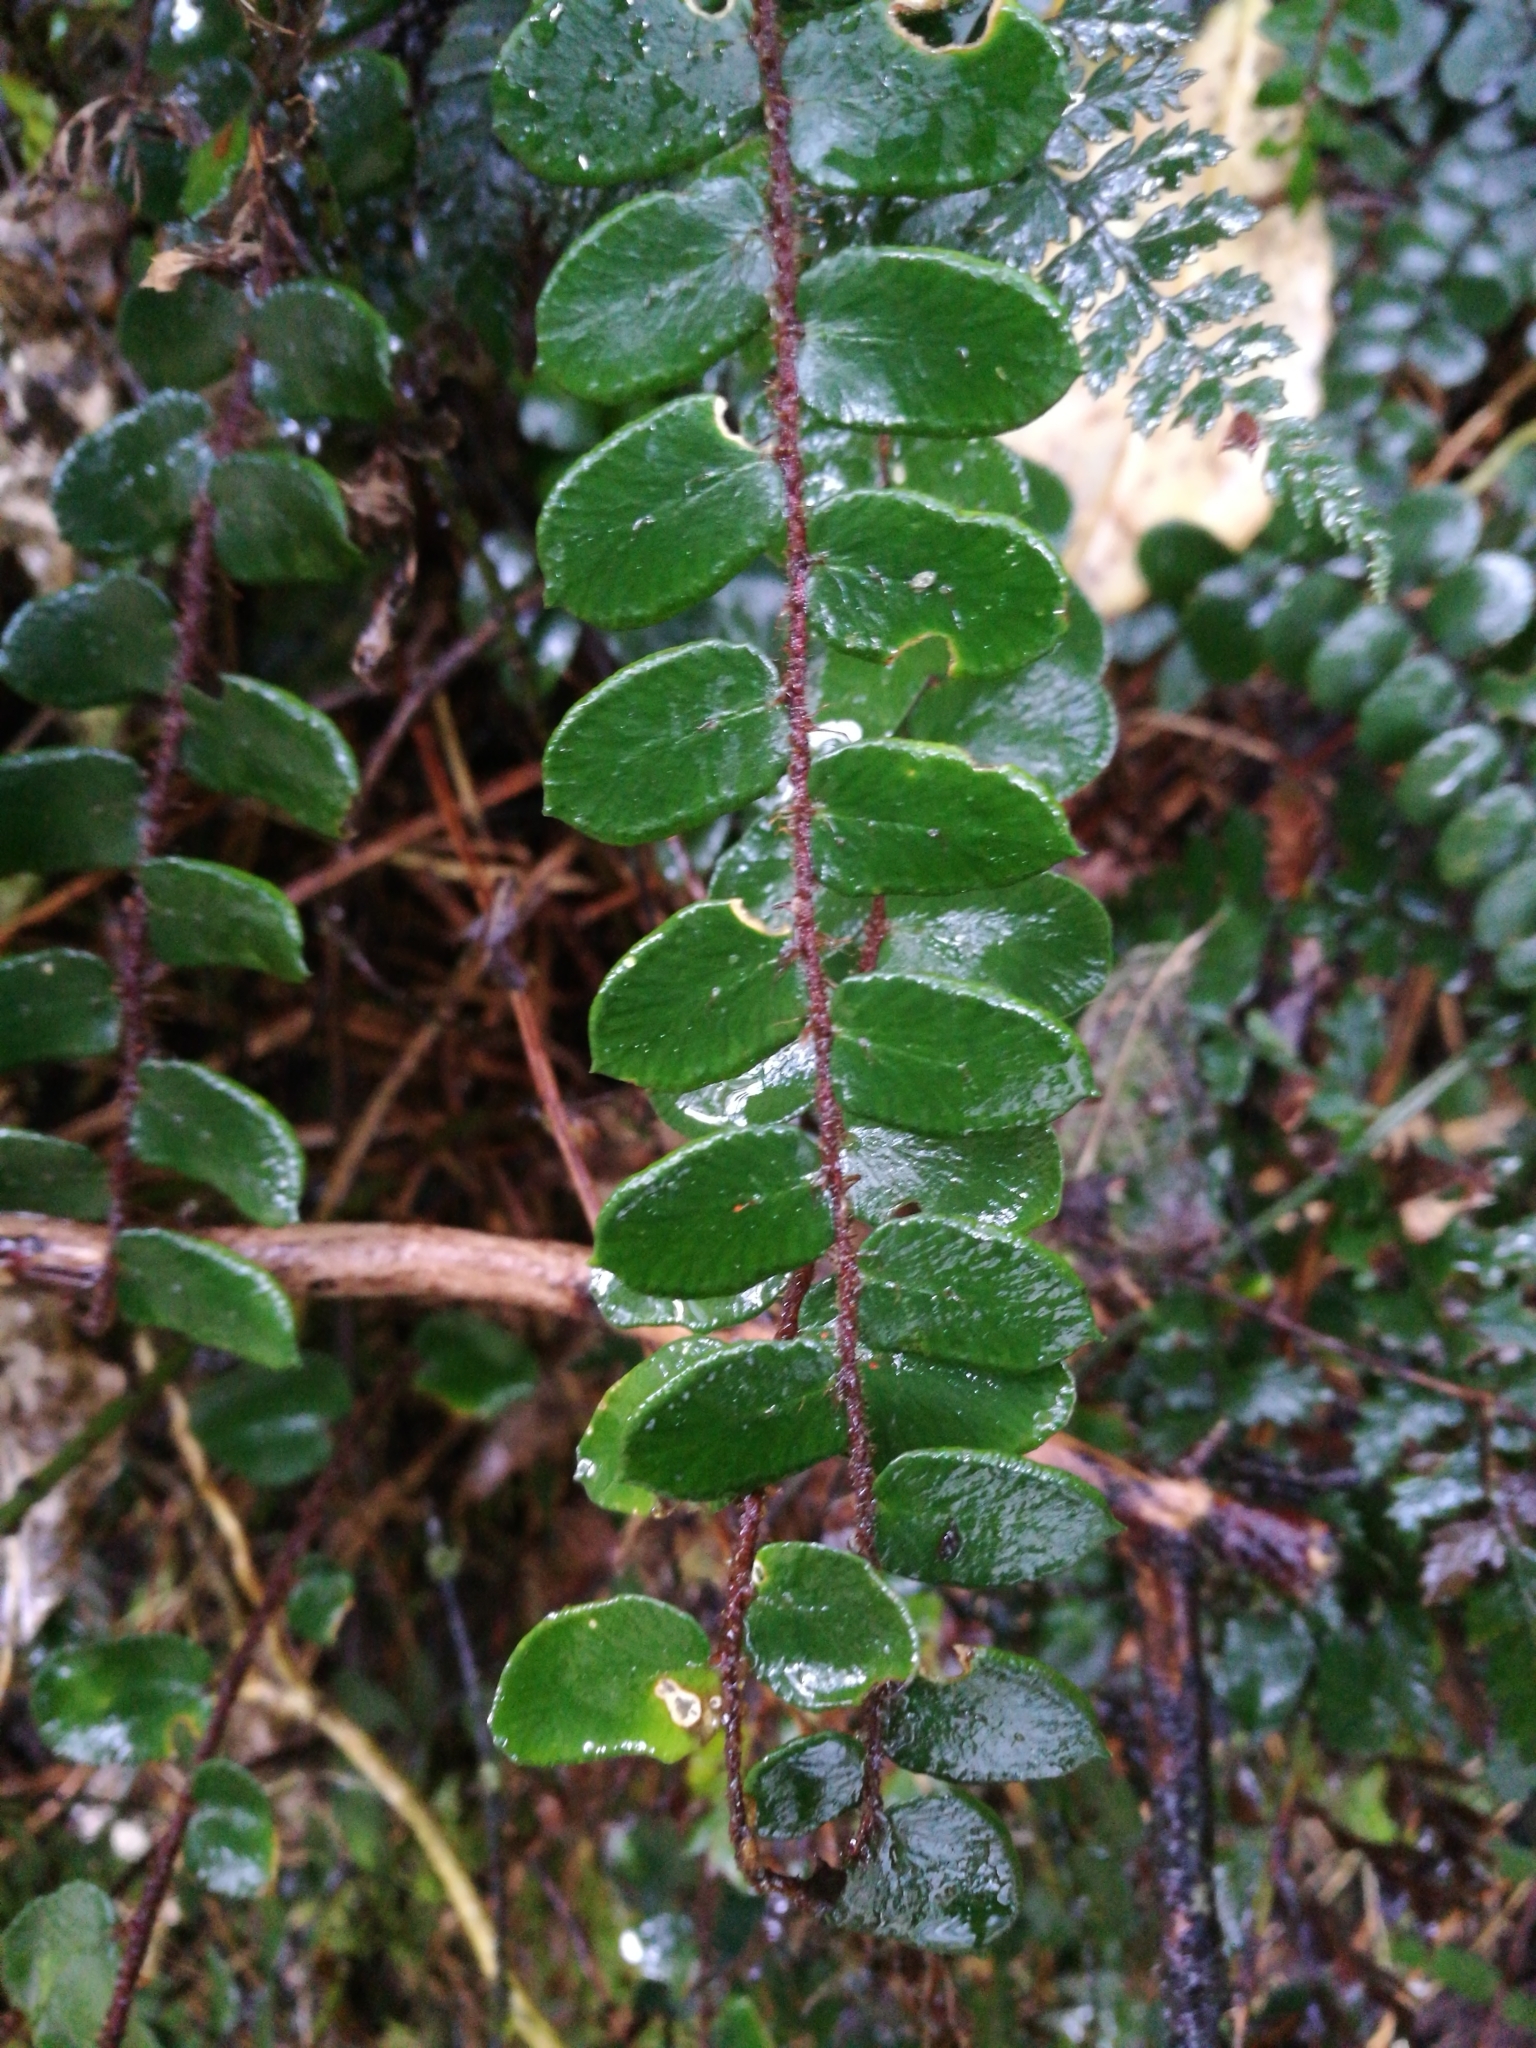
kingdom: Plantae
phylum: Tracheophyta
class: Polypodiopsida
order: Polypodiales
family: Pteridaceae
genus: Pellaea
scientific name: Pellaea rotundifolia
